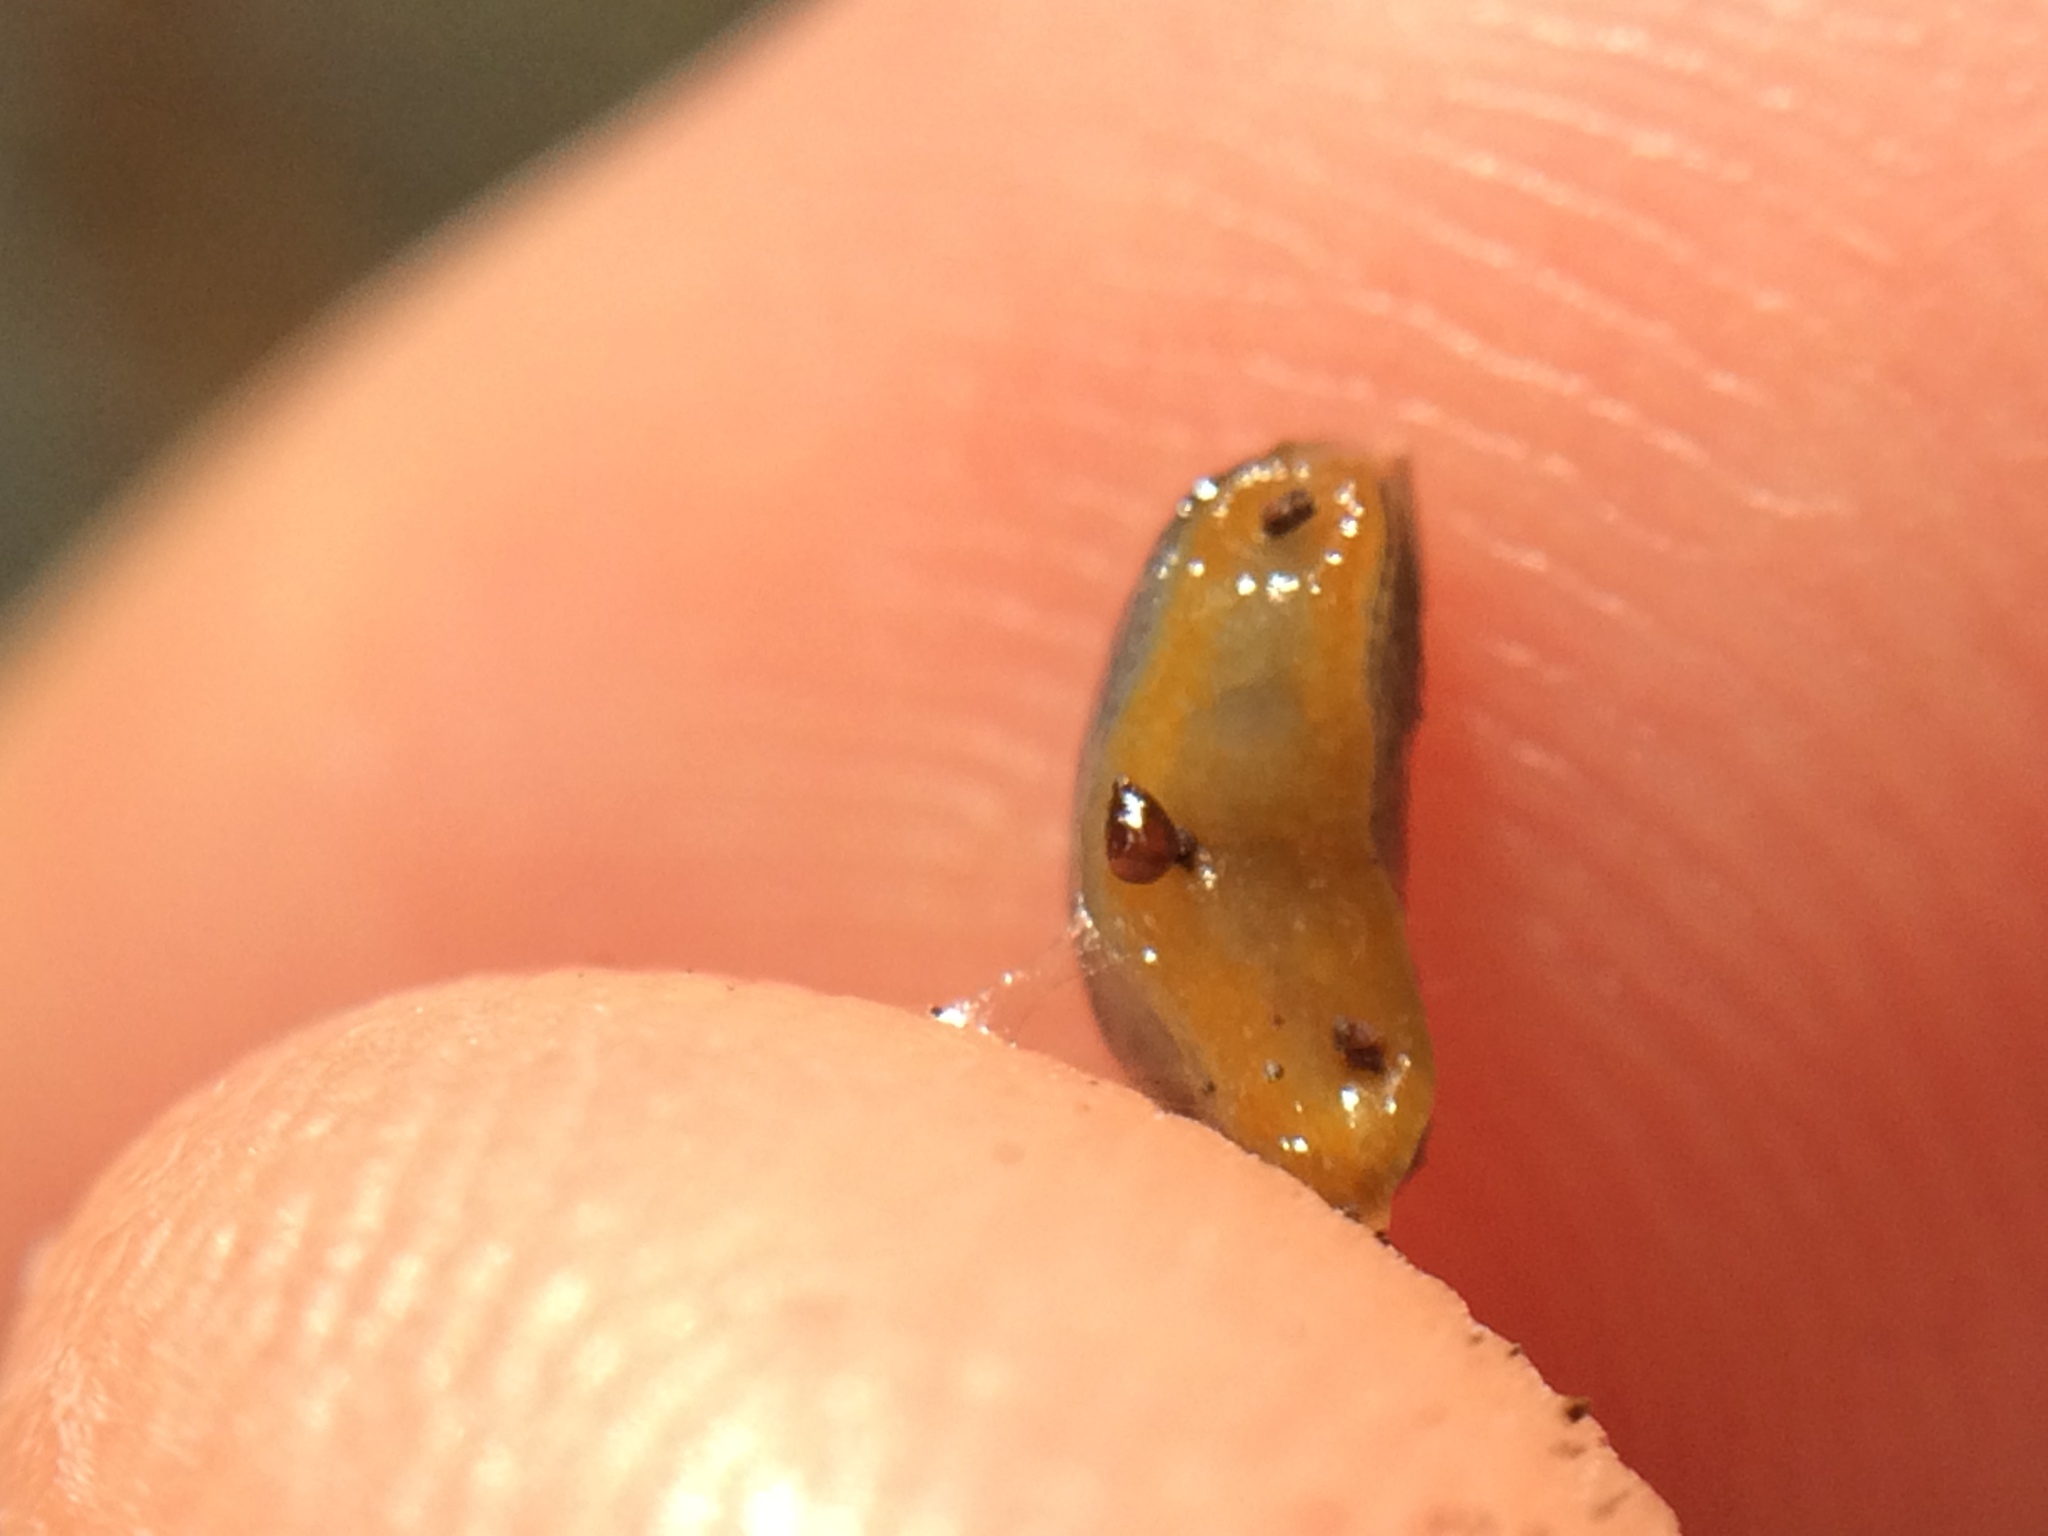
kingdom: Animalia
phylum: Mollusca
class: Gastropoda
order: Stylommatophora
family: Arionidae
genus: Arion
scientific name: Arion hortensis
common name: Garden arion
